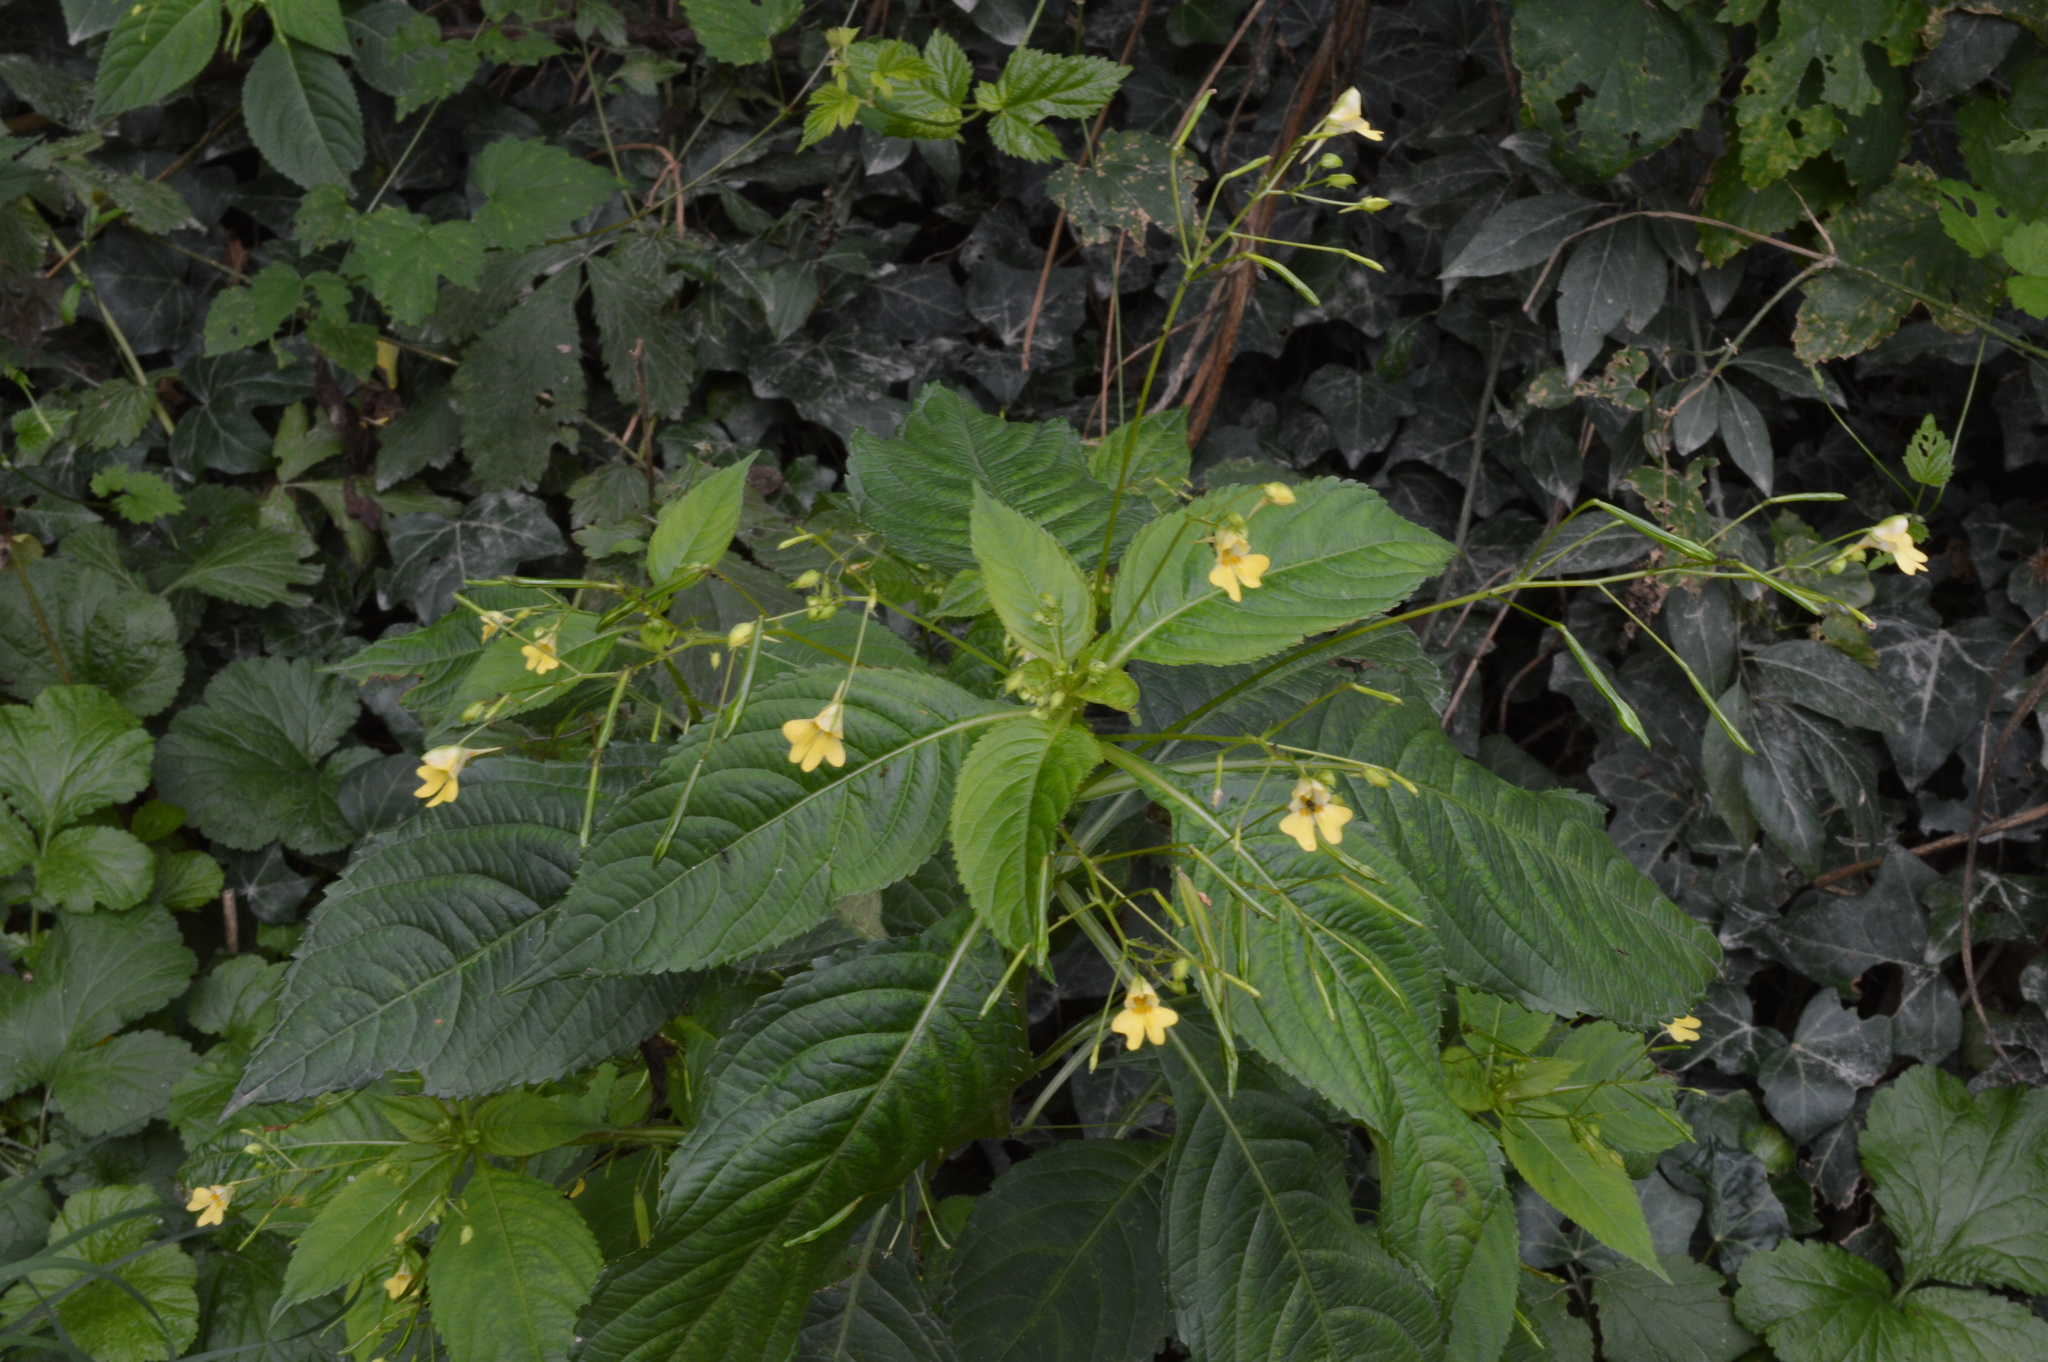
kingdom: Plantae
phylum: Tracheophyta
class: Magnoliopsida
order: Ericales
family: Balsaminaceae
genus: Impatiens
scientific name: Impatiens parviflora
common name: Small balsam
